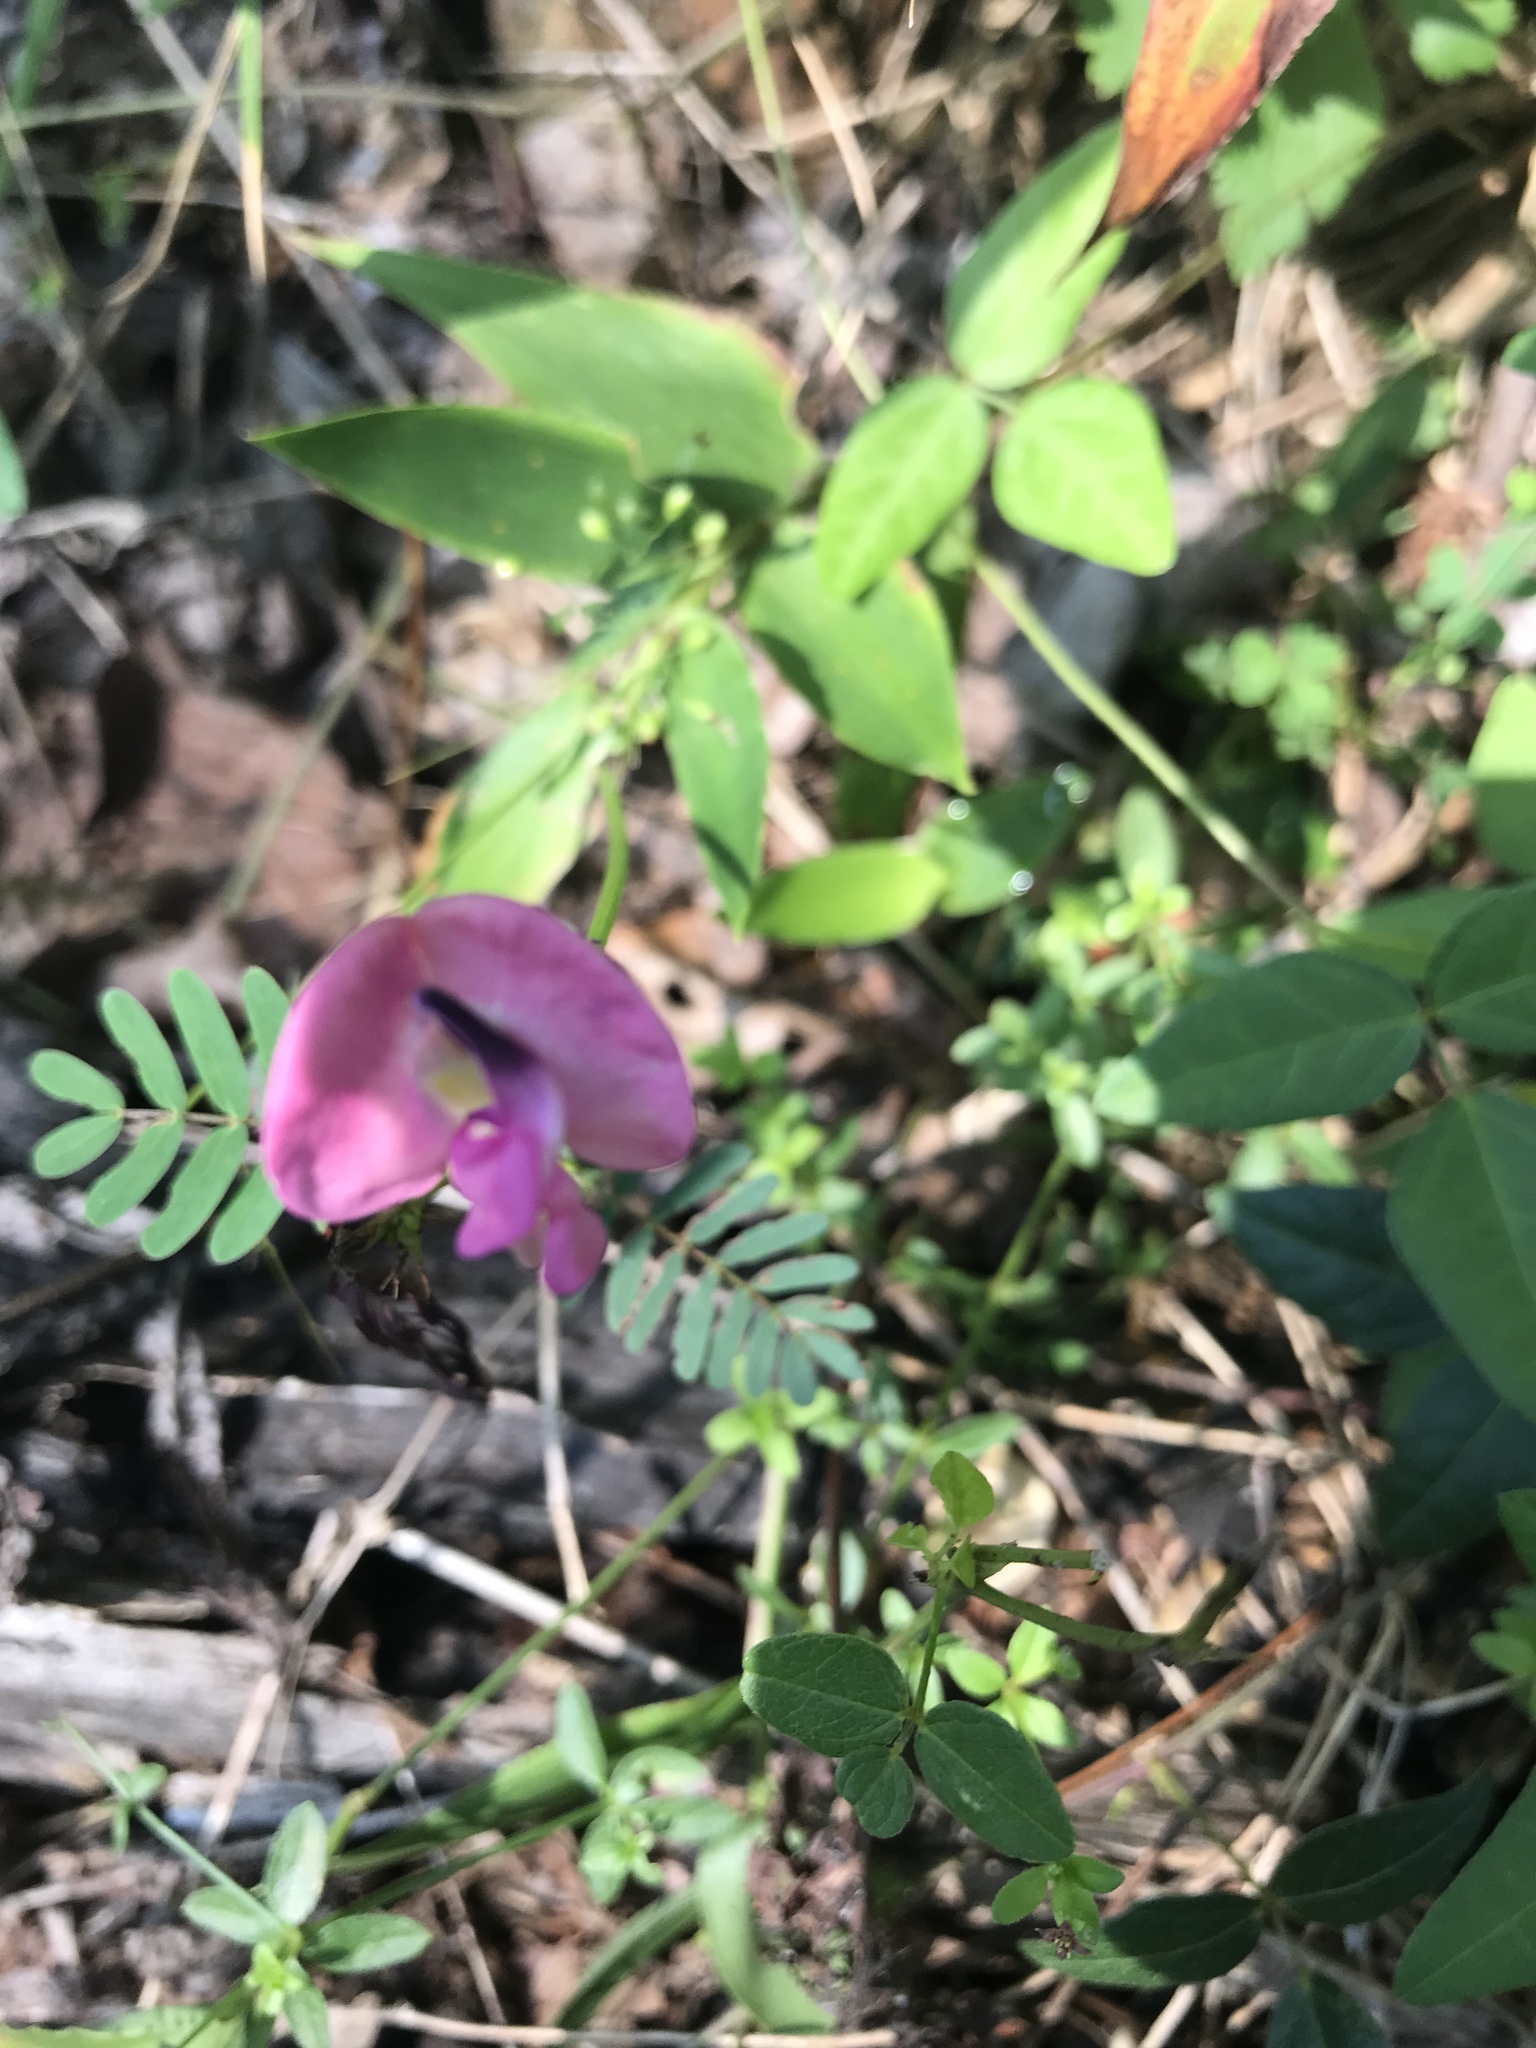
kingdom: Plantae
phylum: Tracheophyta
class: Magnoliopsida
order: Fabales
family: Fabaceae
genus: Strophostyles
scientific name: Strophostyles umbellata
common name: Perennial wild bean
